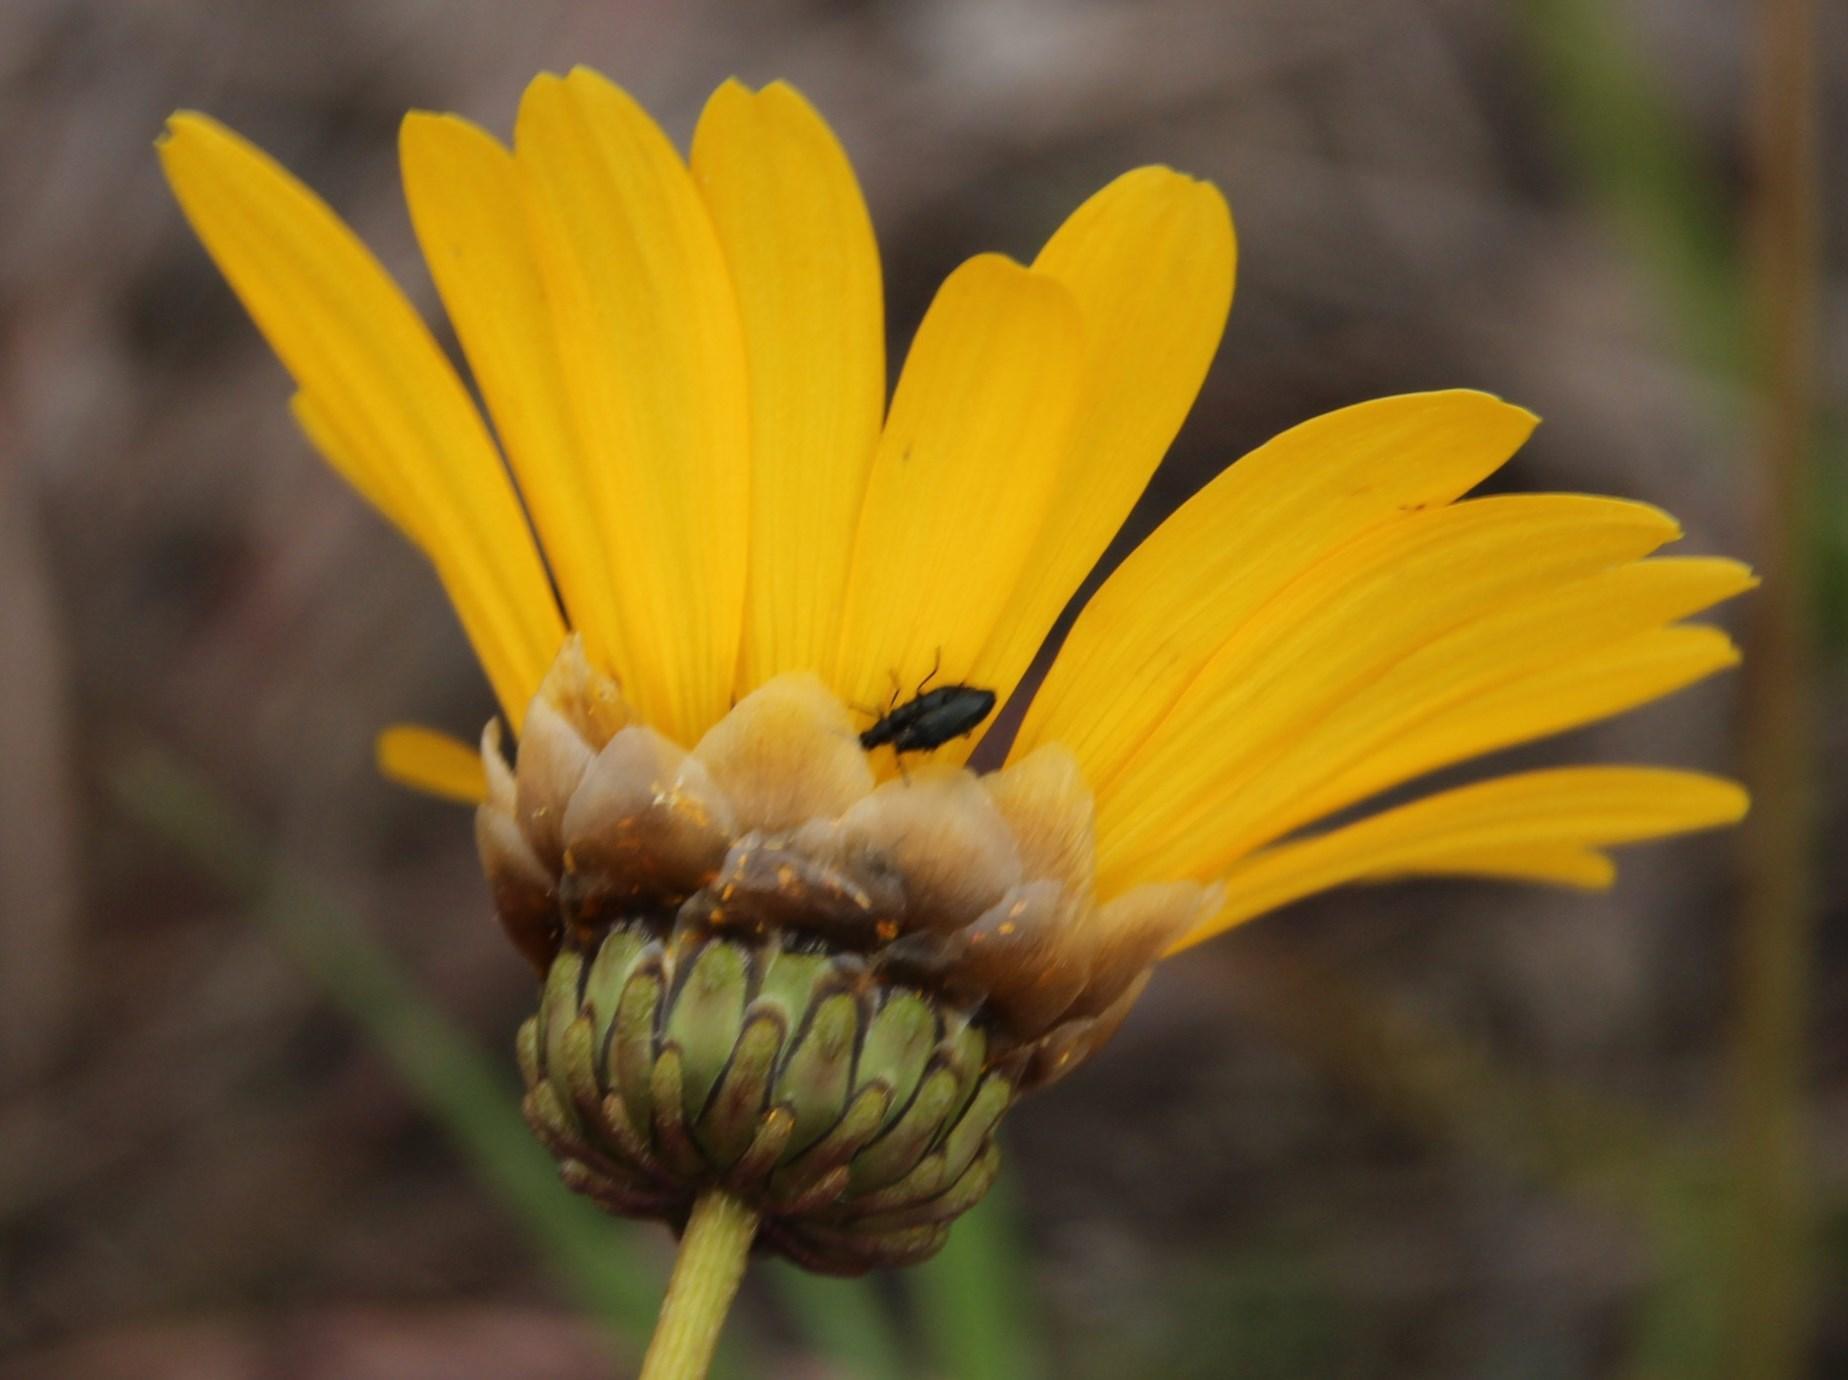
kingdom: Plantae
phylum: Tracheophyta
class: Magnoliopsida
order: Asterales
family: Asteraceae
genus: Ursinia
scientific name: Ursinia paleacea
